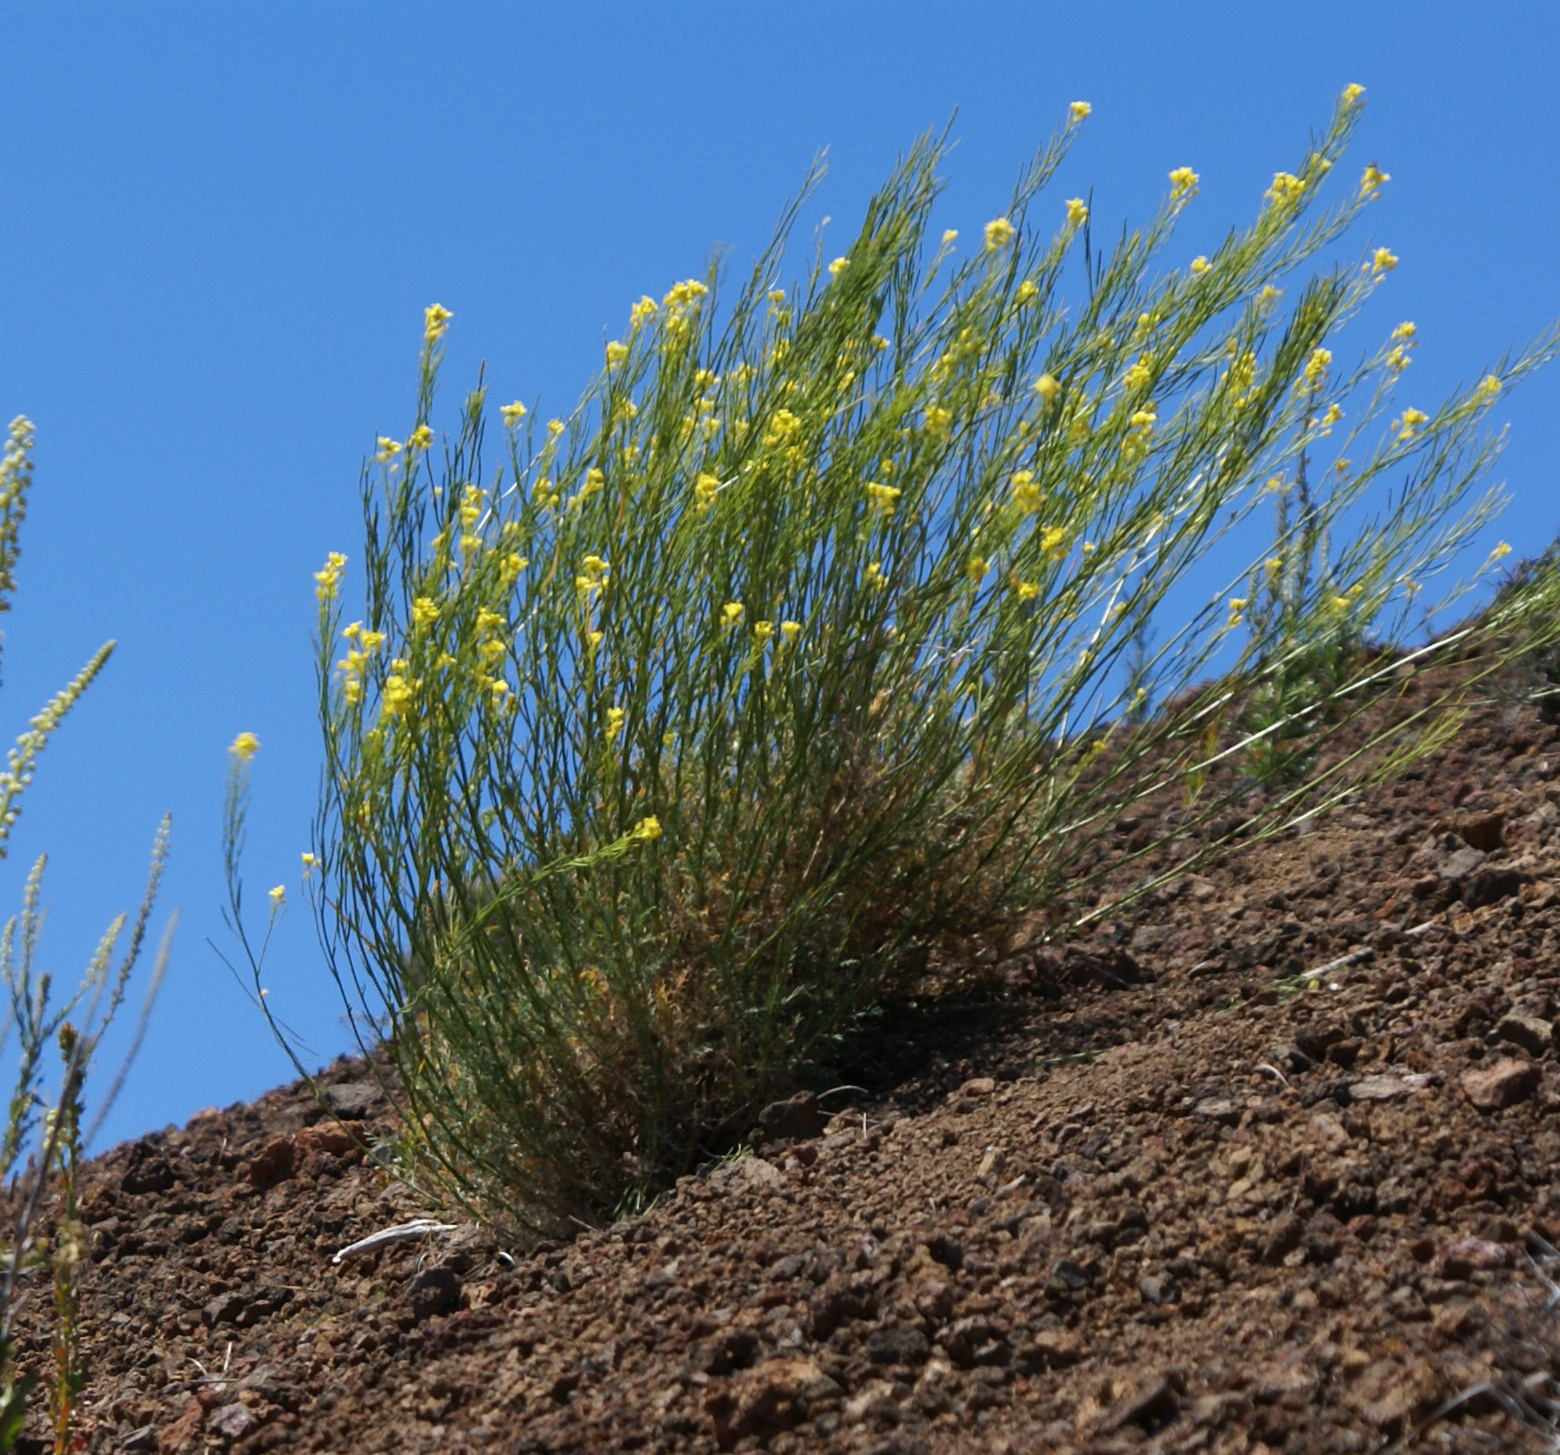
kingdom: Plantae
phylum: Tracheophyta
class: Magnoliopsida
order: Brassicales
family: Brassicaceae
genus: Descurainia
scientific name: Descurainia gilva
